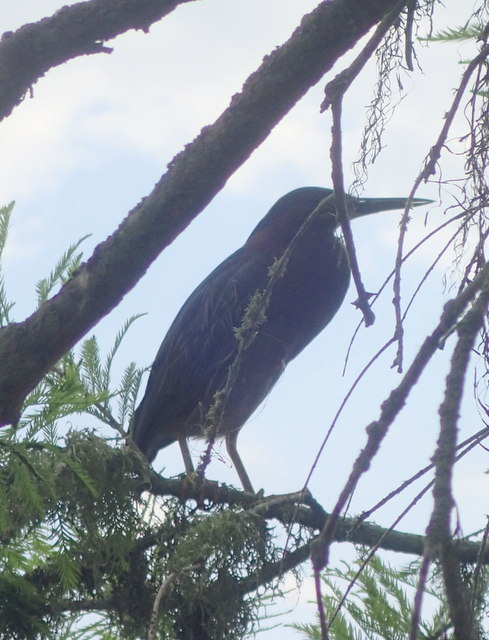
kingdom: Animalia
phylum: Chordata
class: Aves
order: Pelecaniformes
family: Ardeidae
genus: Butorides
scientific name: Butorides virescens
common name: Green heron
